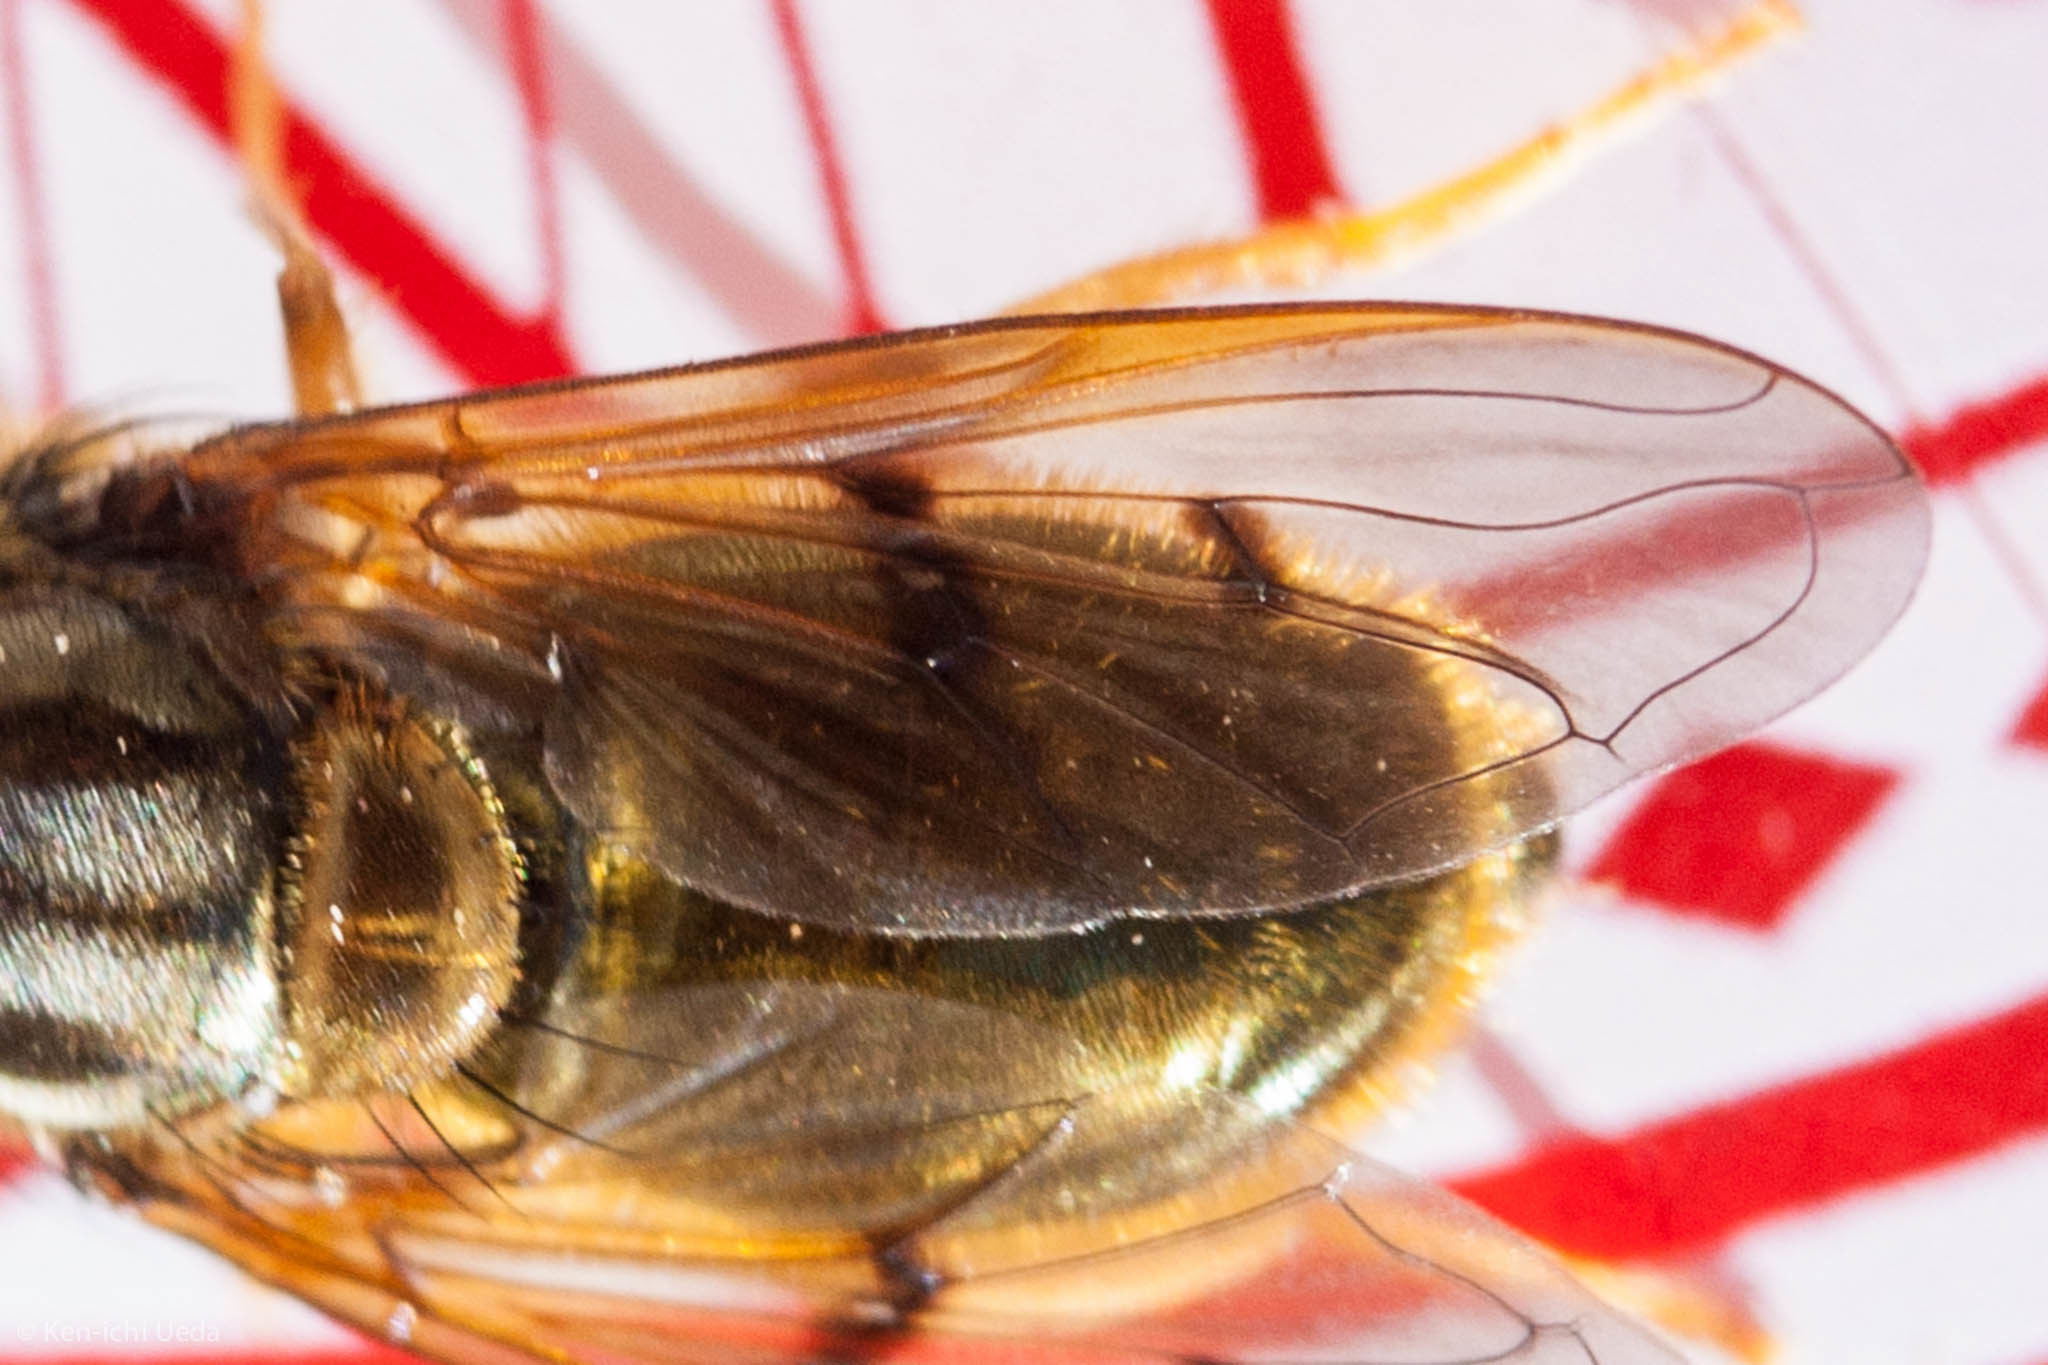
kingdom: Animalia
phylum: Arthropoda
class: Insecta
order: Diptera
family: Syrphidae
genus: Ferdinandea
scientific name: Ferdinandea croesus
